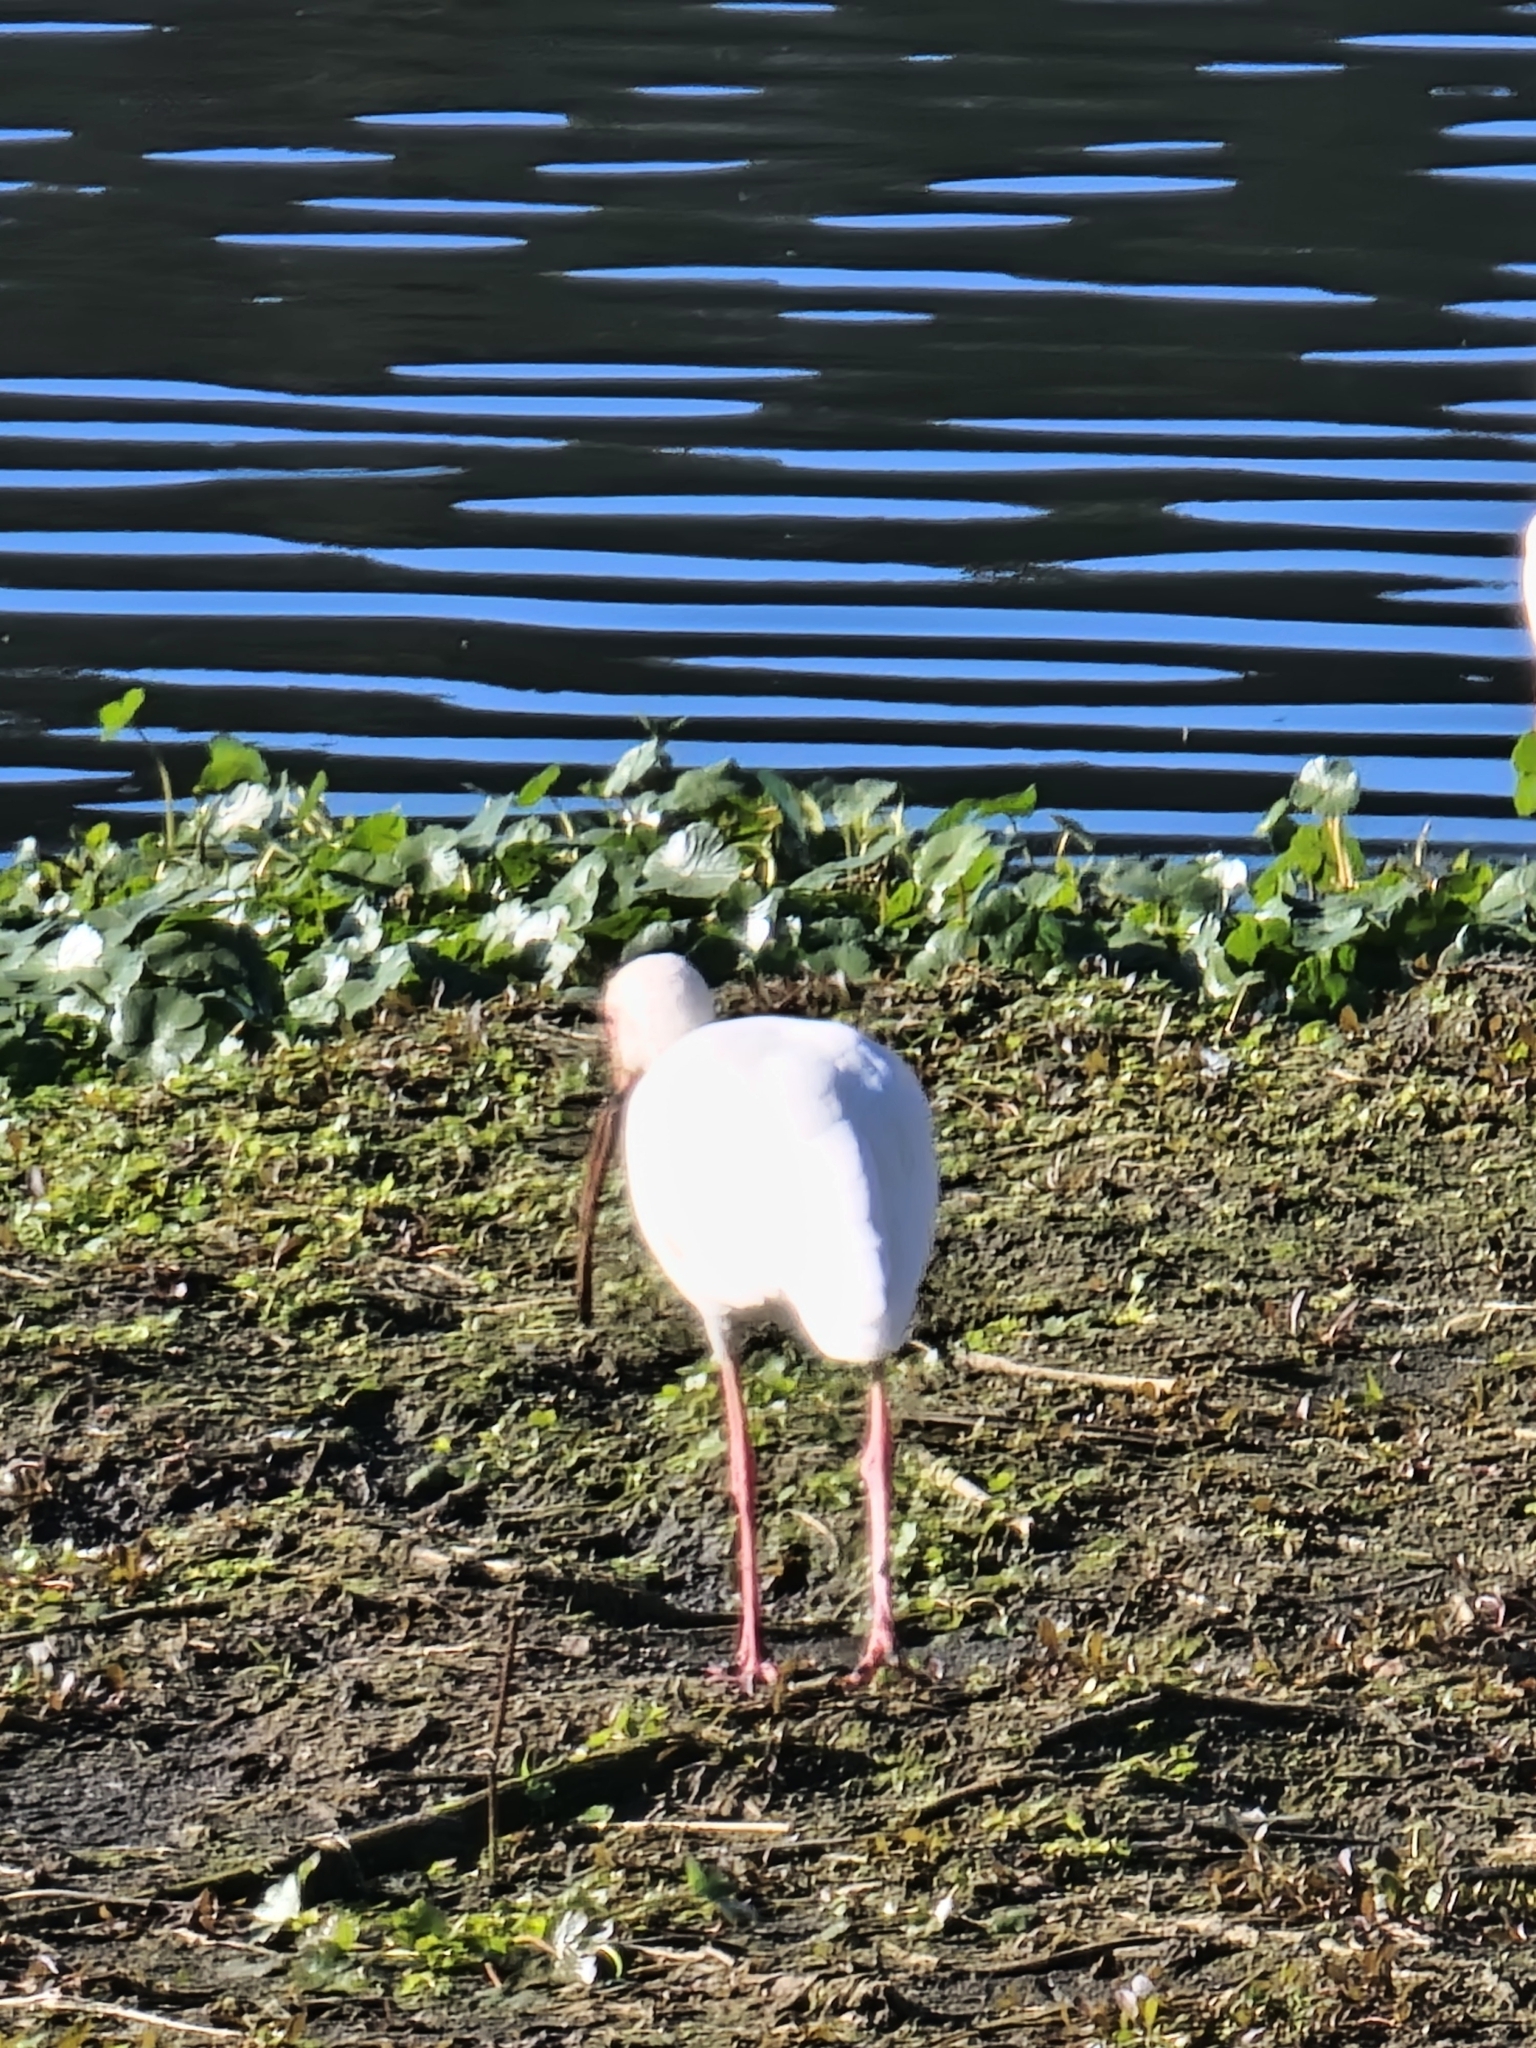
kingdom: Animalia
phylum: Chordata
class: Aves
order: Pelecaniformes
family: Threskiornithidae
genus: Eudocimus
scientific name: Eudocimus albus
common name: White ibis
